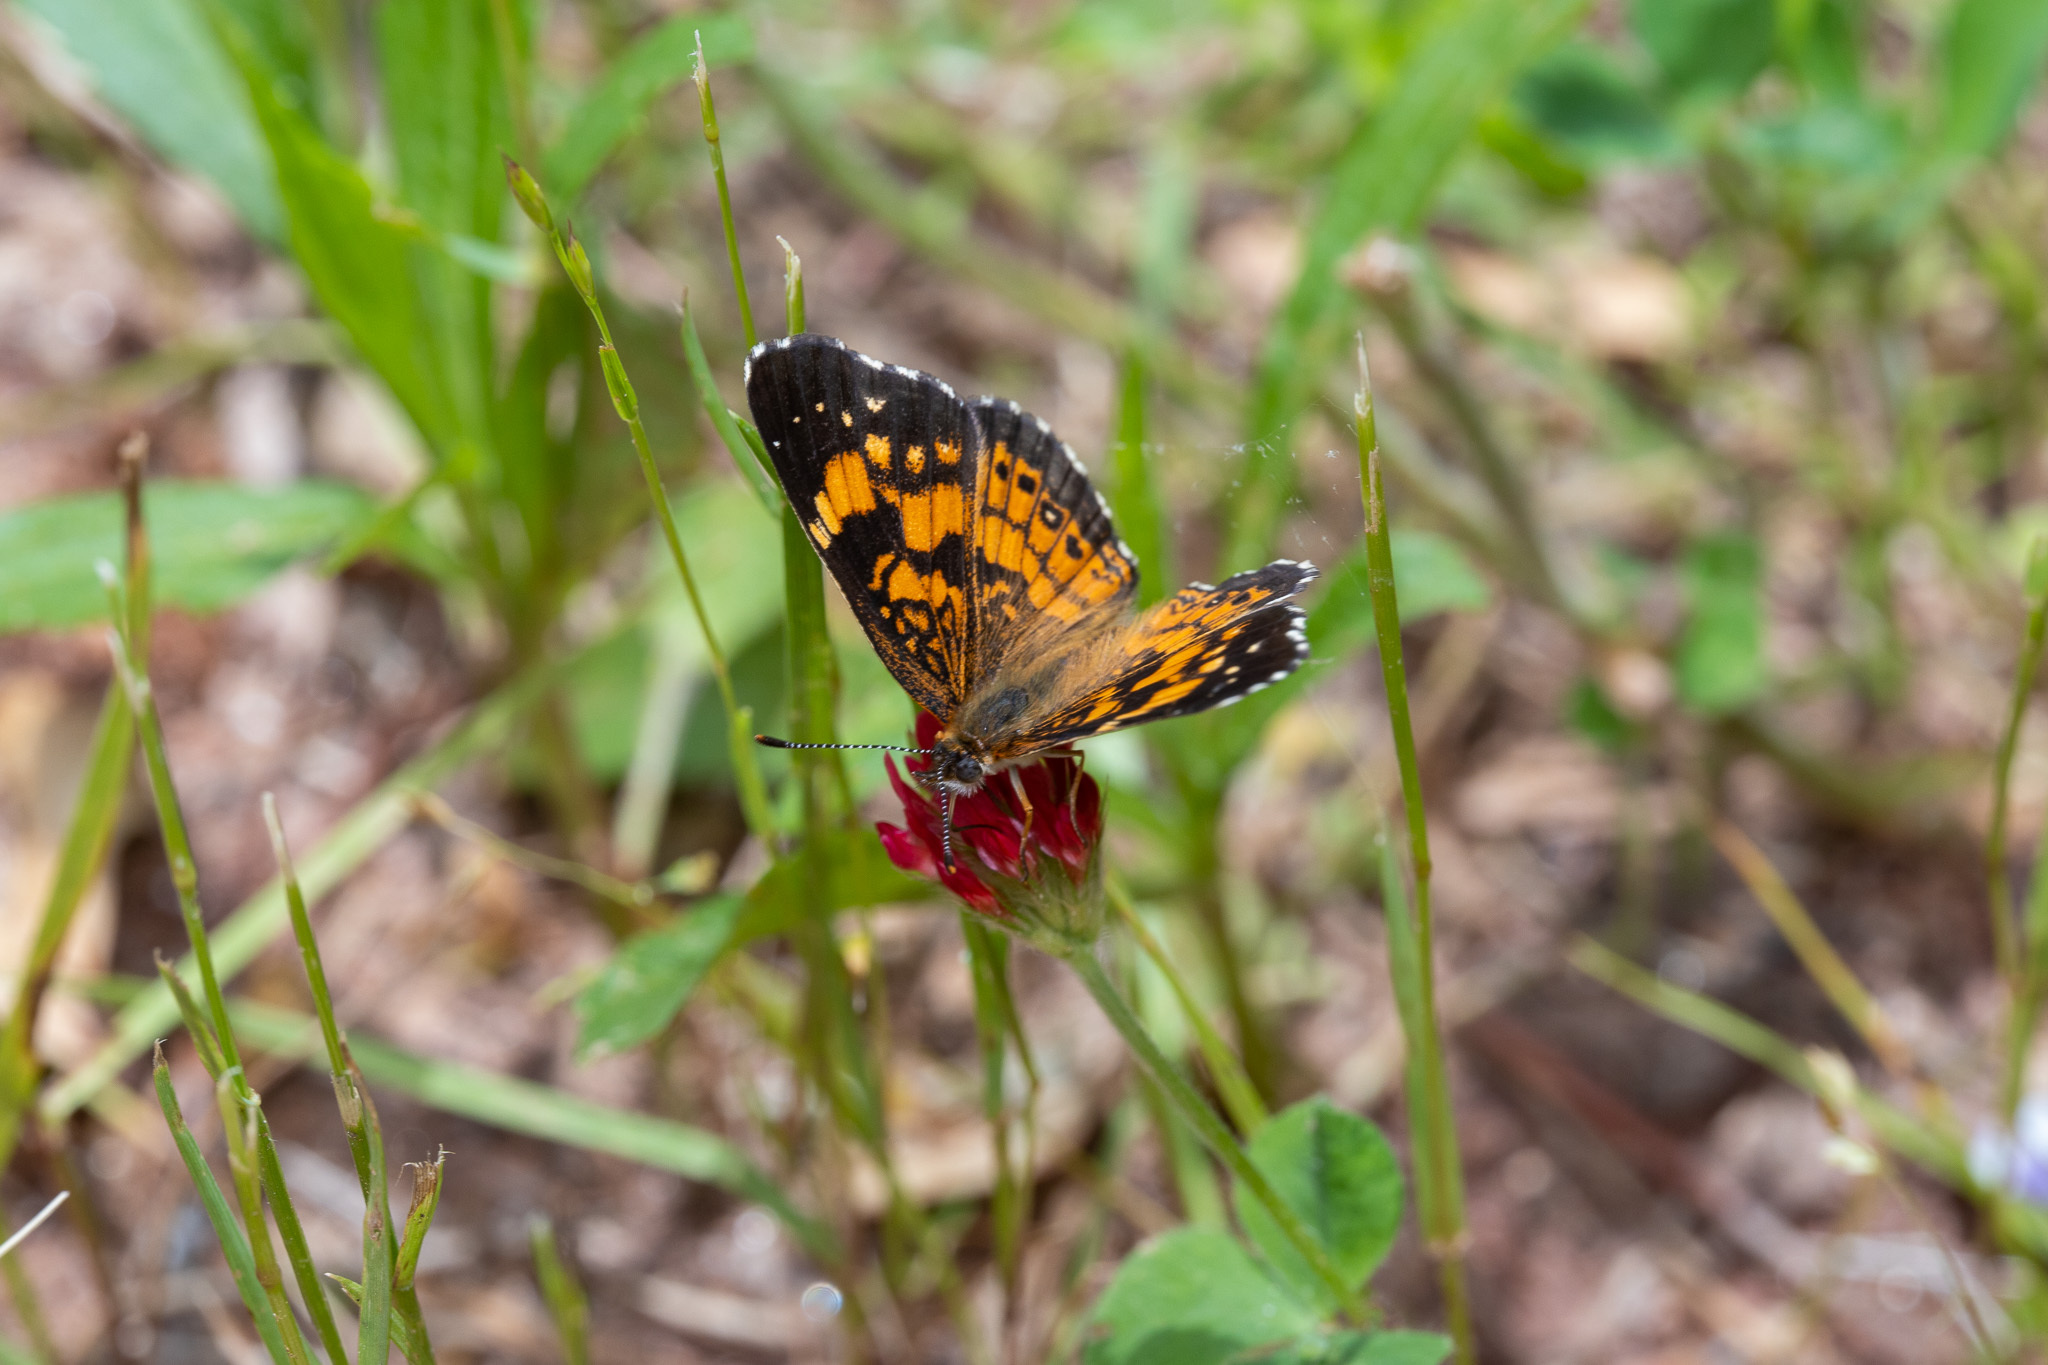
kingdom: Animalia
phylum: Arthropoda
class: Insecta
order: Lepidoptera
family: Nymphalidae
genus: Chlosyne
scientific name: Chlosyne nycteis
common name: Silvery checkerspot
